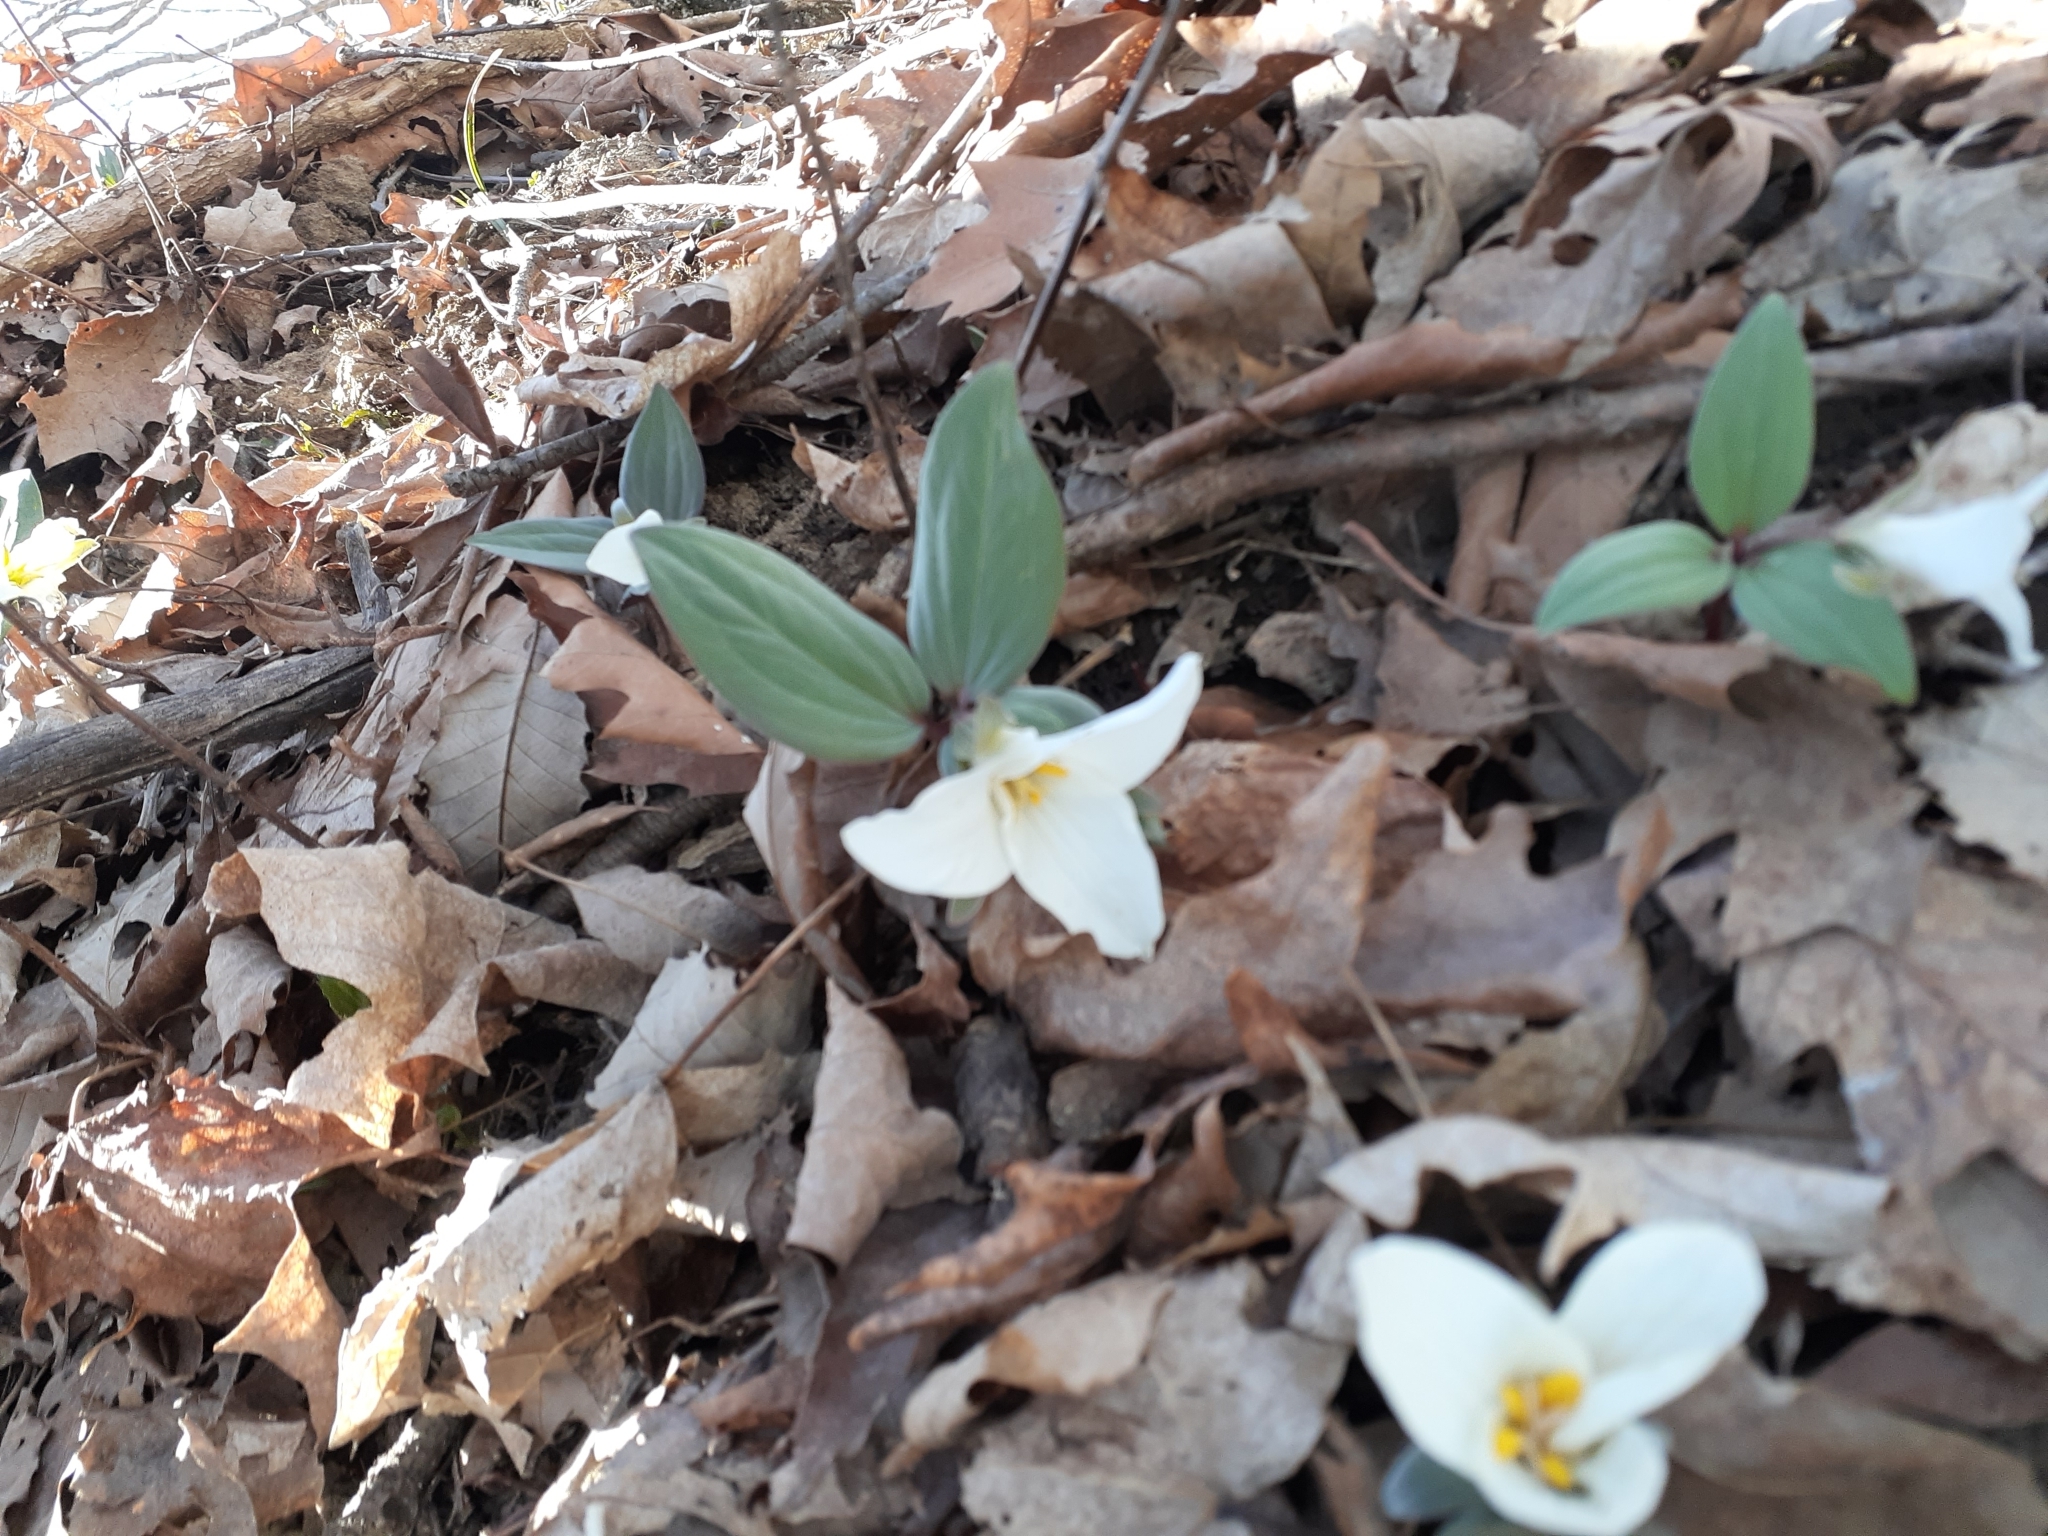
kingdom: Plantae
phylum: Tracheophyta
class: Liliopsida
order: Liliales
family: Melanthiaceae
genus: Trillium
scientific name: Trillium nivale
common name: Dwarf white trillium
